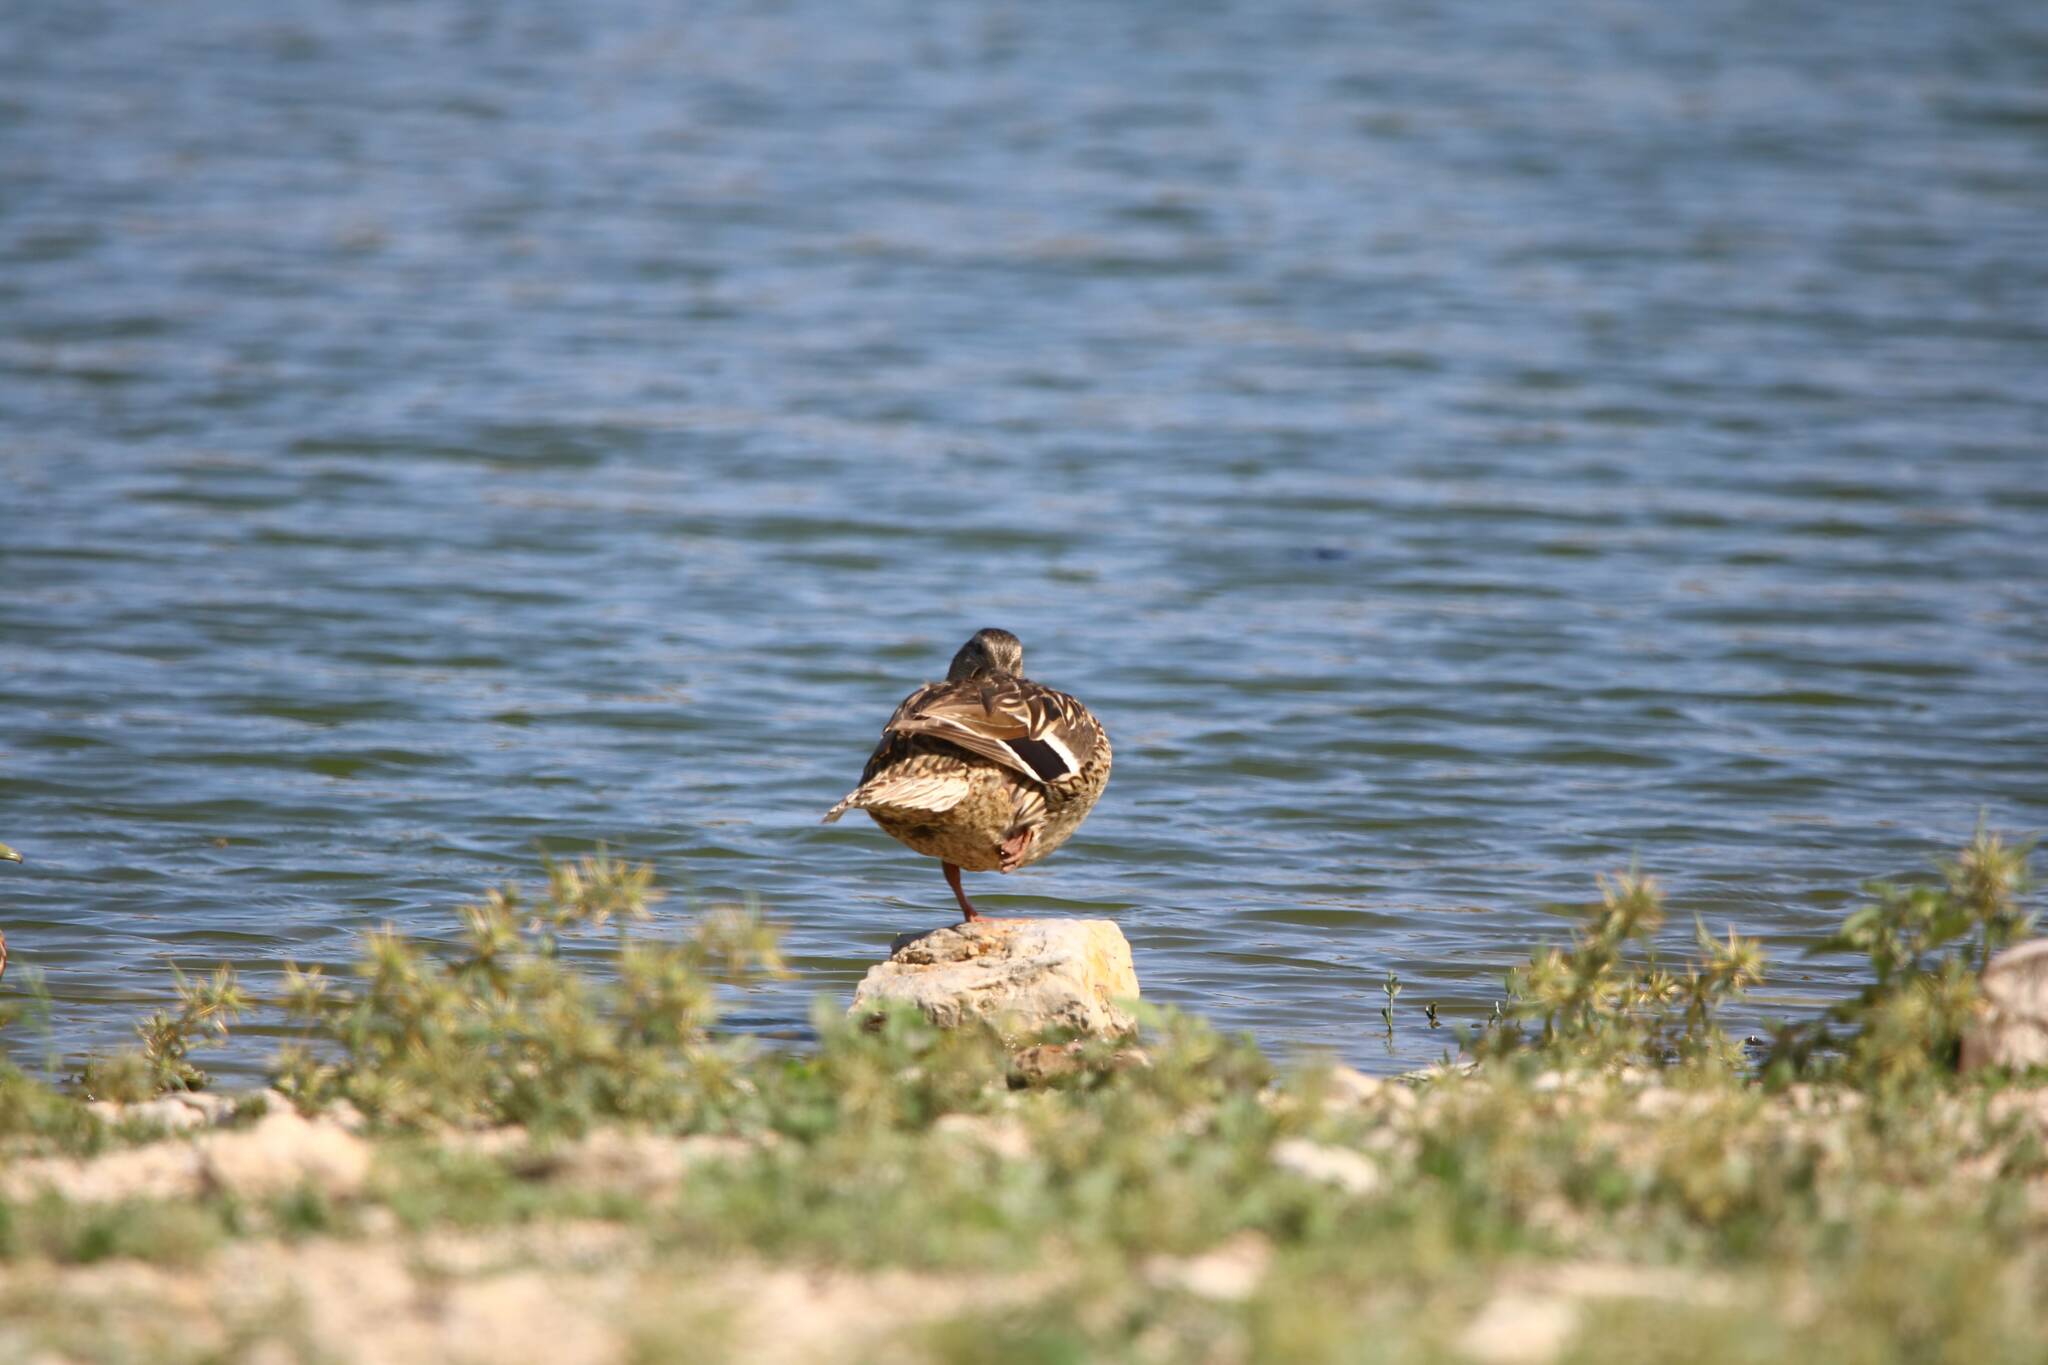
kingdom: Animalia
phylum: Chordata
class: Aves
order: Anseriformes
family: Anatidae
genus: Anas
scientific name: Anas platyrhynchos
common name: Mallard
